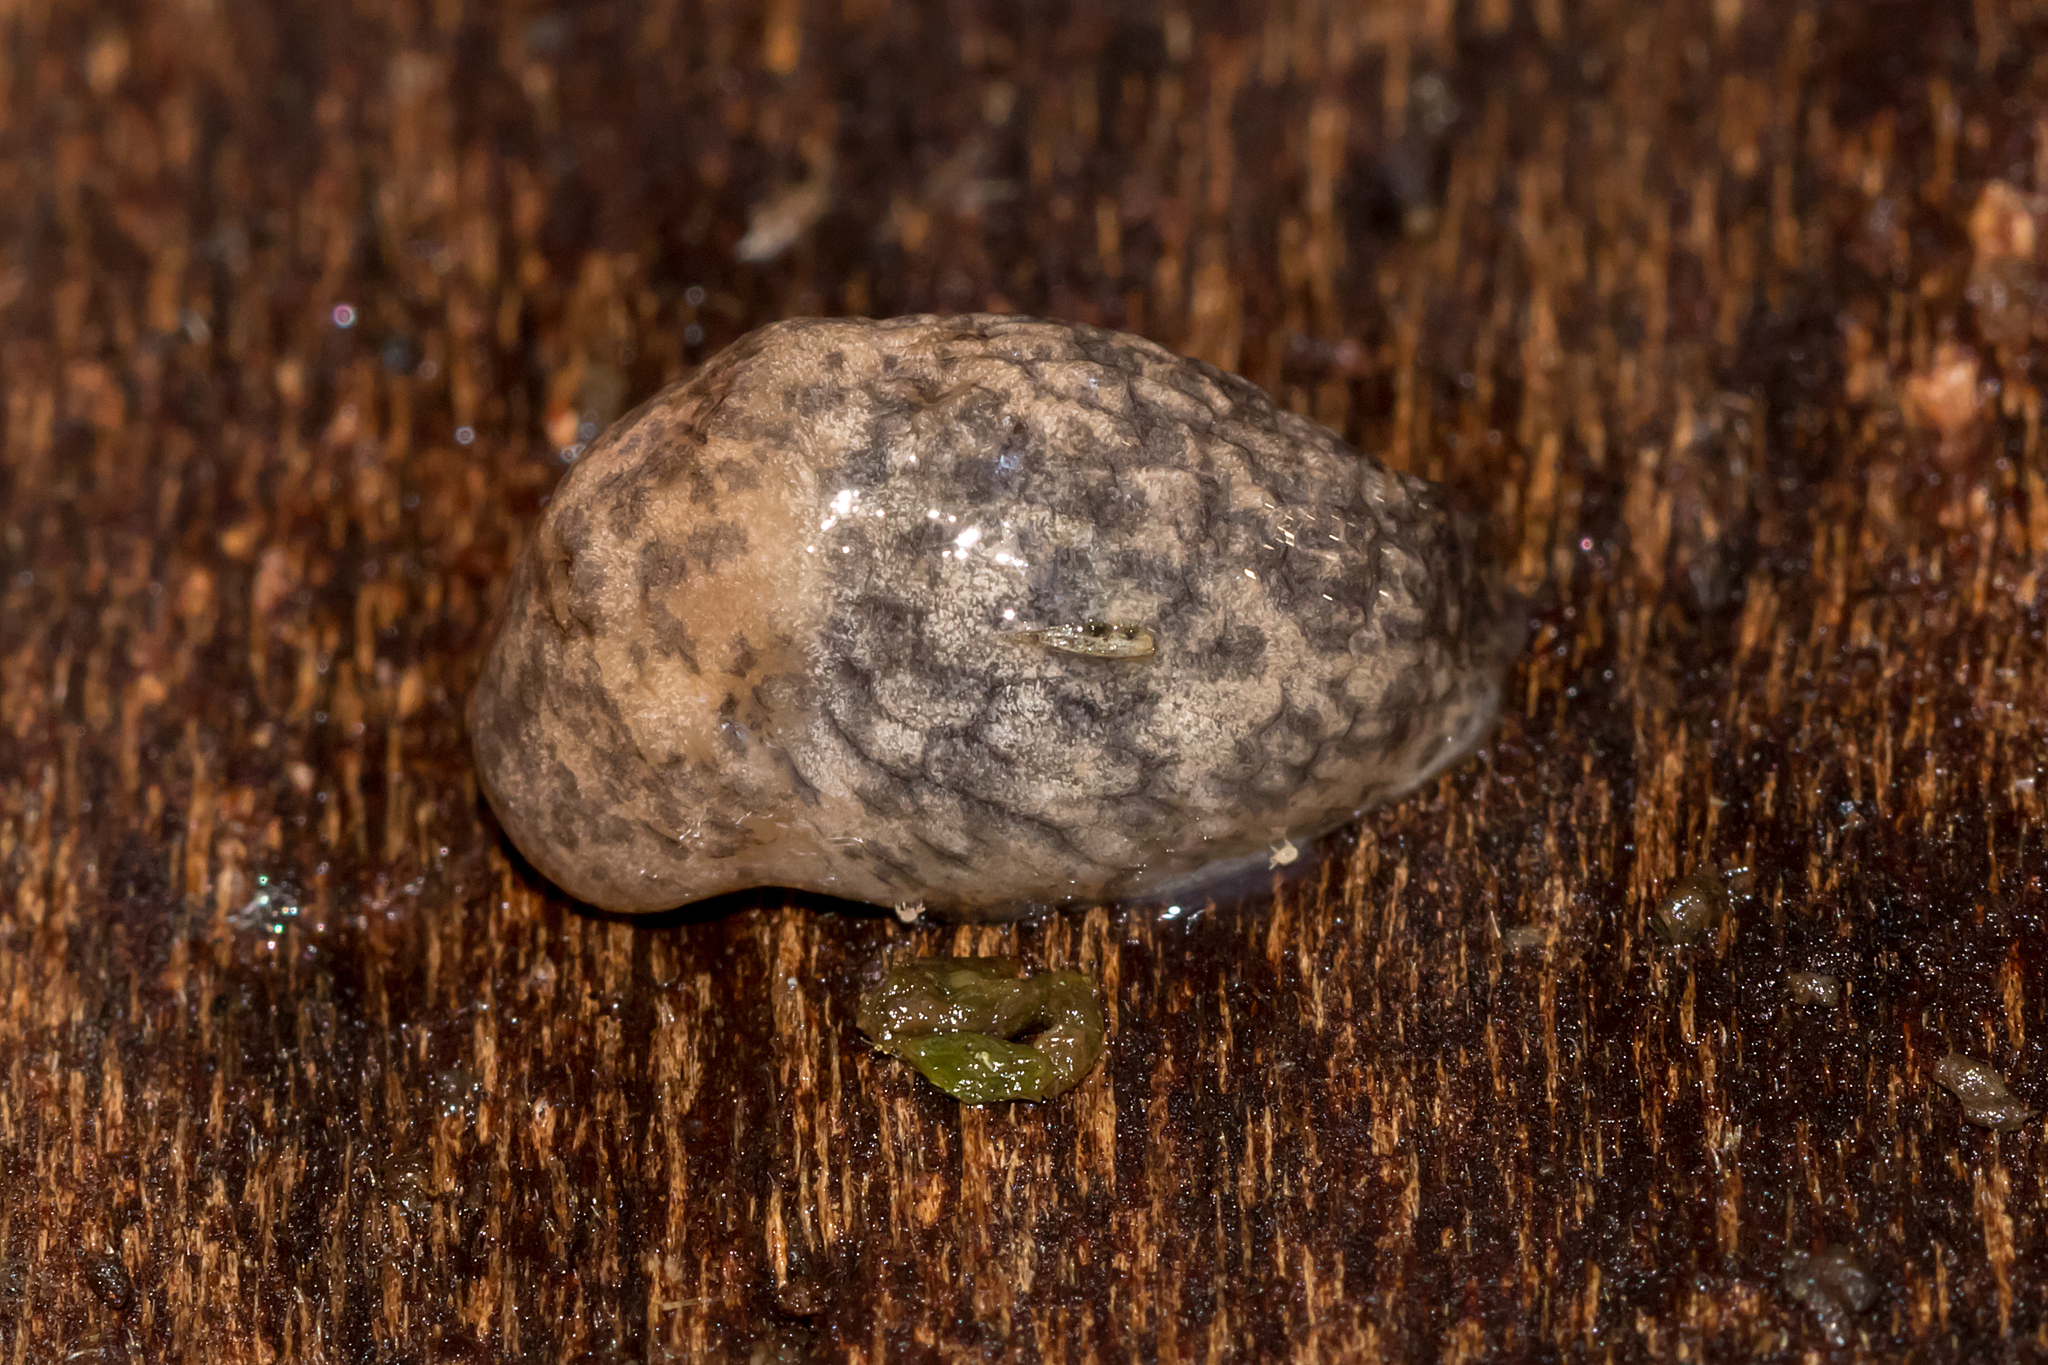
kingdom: Animalia
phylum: Mollusca
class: Gastropoda
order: Stylommatophora
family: Agriolimacidae
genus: Deroceras
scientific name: Deroceras reticulatum
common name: Gray field slug
